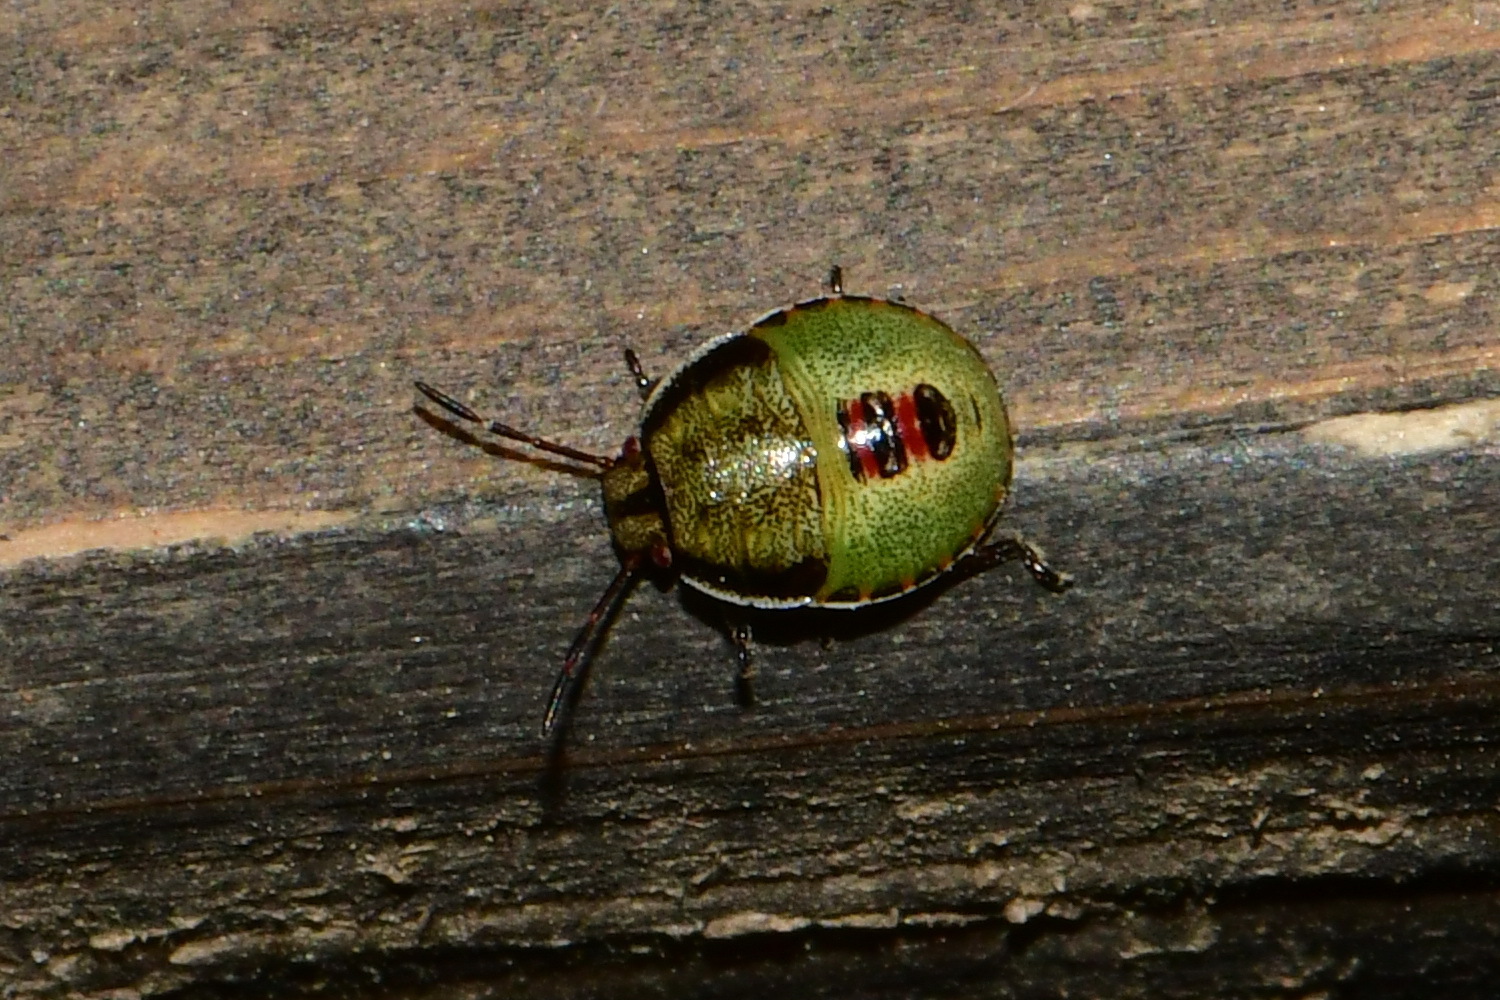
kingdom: Animalia
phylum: Arthropoda
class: Insecta
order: Hemiptera
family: Pentatomidae
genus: Piezodorus
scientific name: Piezodorus lituratus
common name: Stink bug
